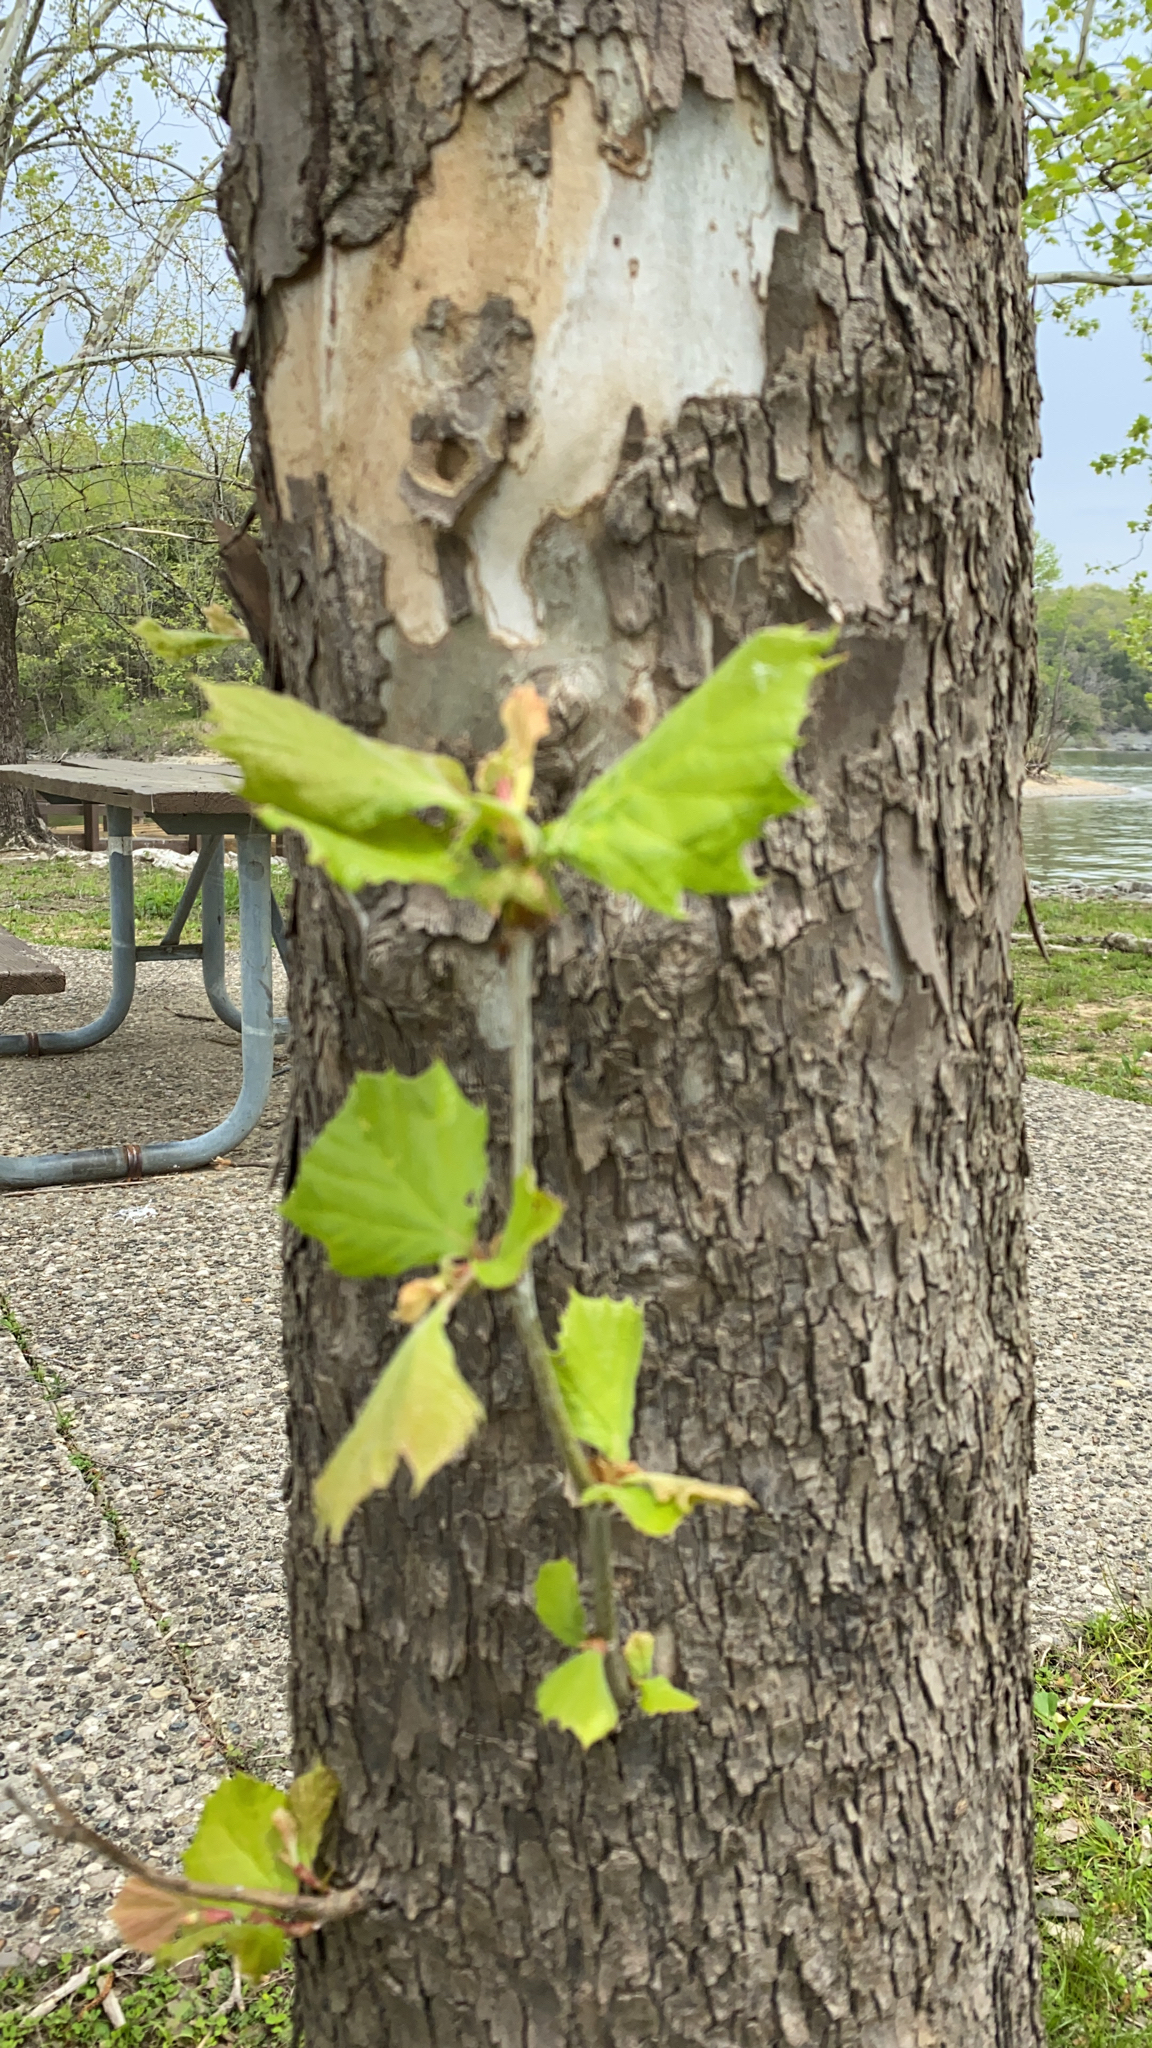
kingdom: Plantae
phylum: Tracheophyta
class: Magnoliopsida
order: Proteales
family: Platanaceae
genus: Platanus
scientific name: Platanus occidentalis
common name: American sycamore
